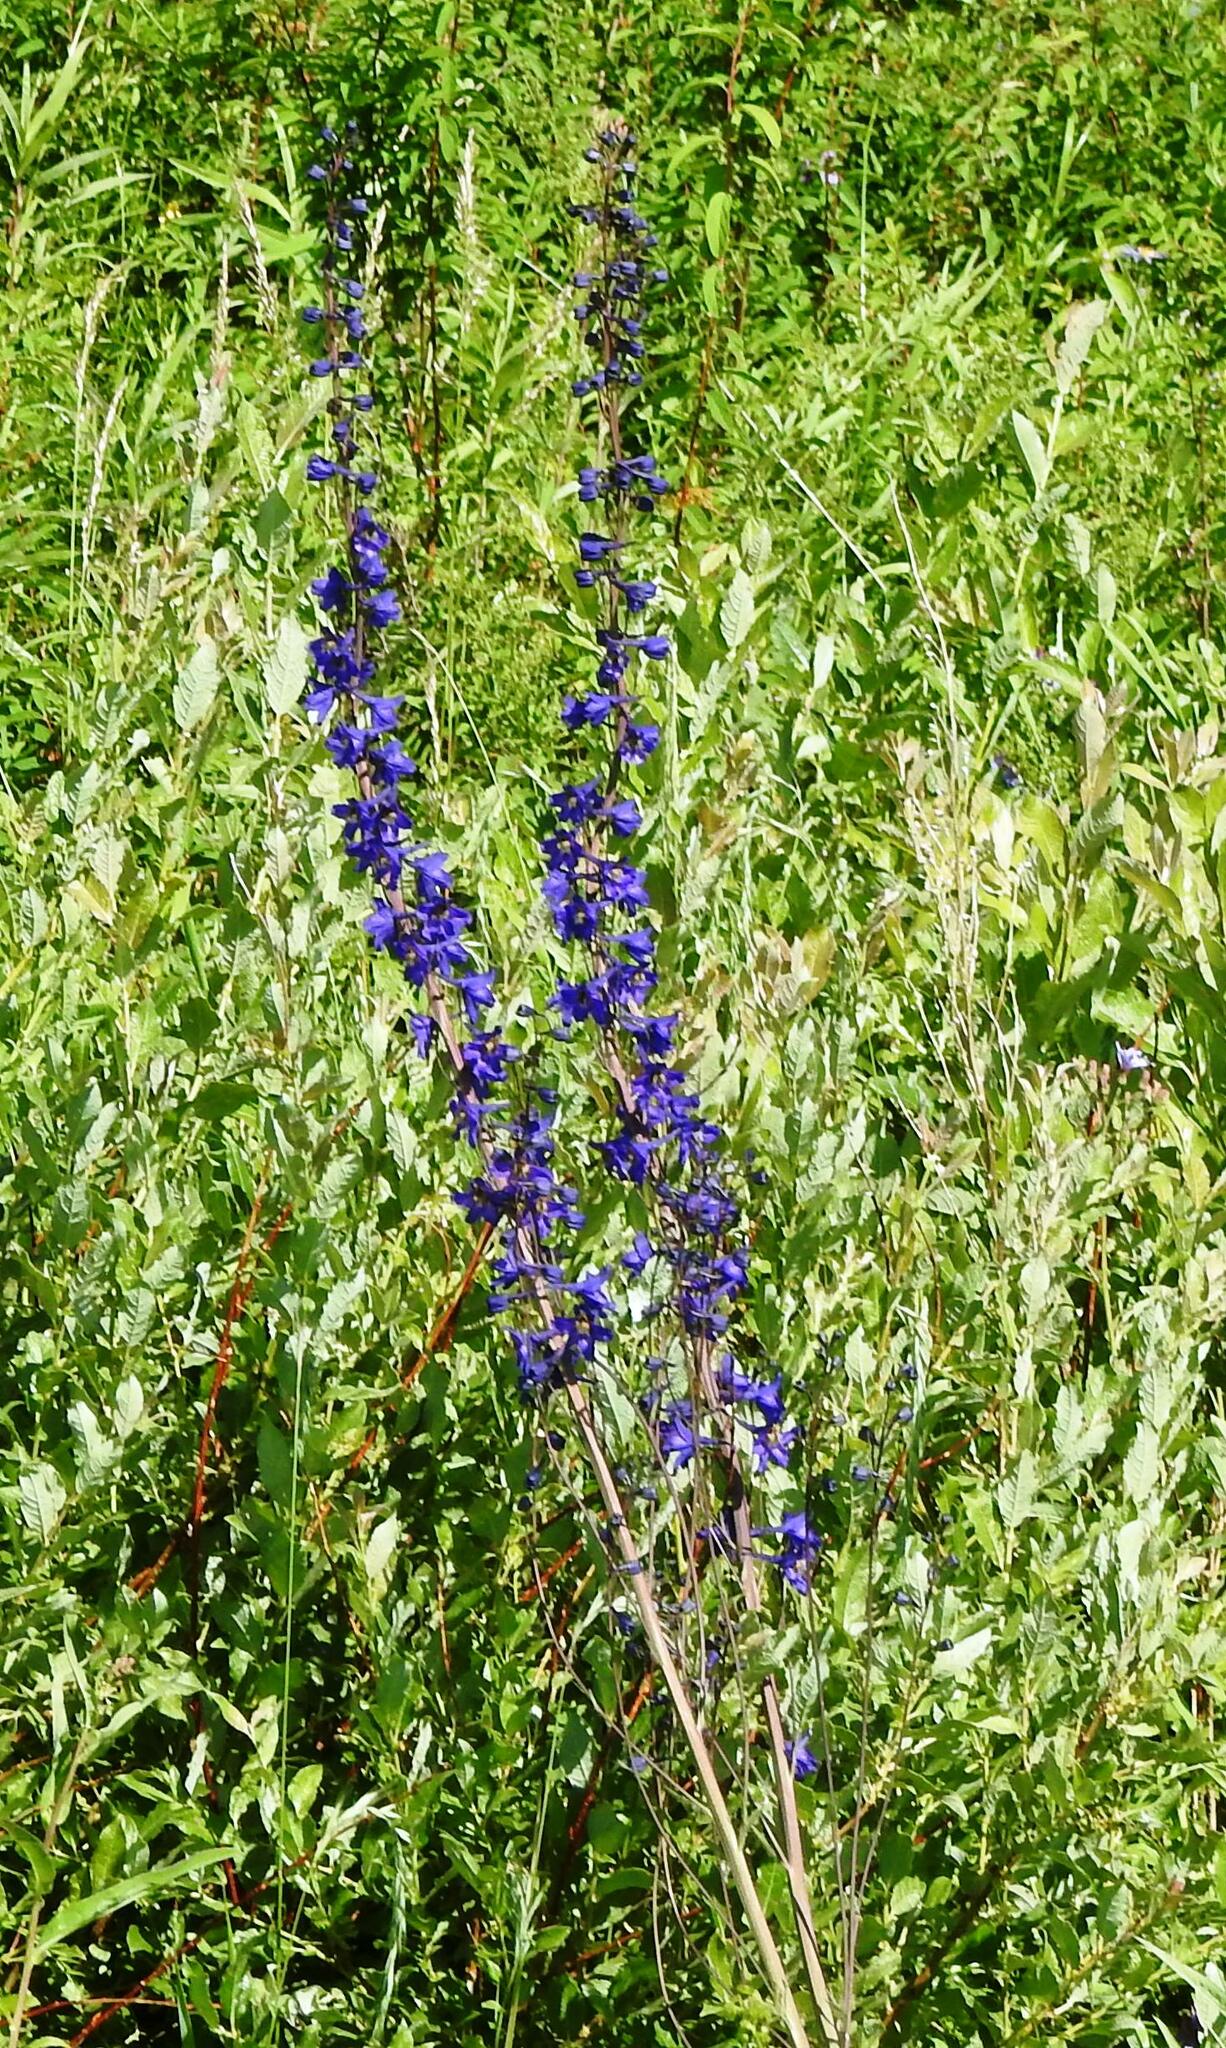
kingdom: Plantae
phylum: Tracheophyta
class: Magnoliopsida
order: Ranunculales
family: Ranunculaceae
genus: Delphinium
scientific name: Delphinium elatum
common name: Candle larkspur
